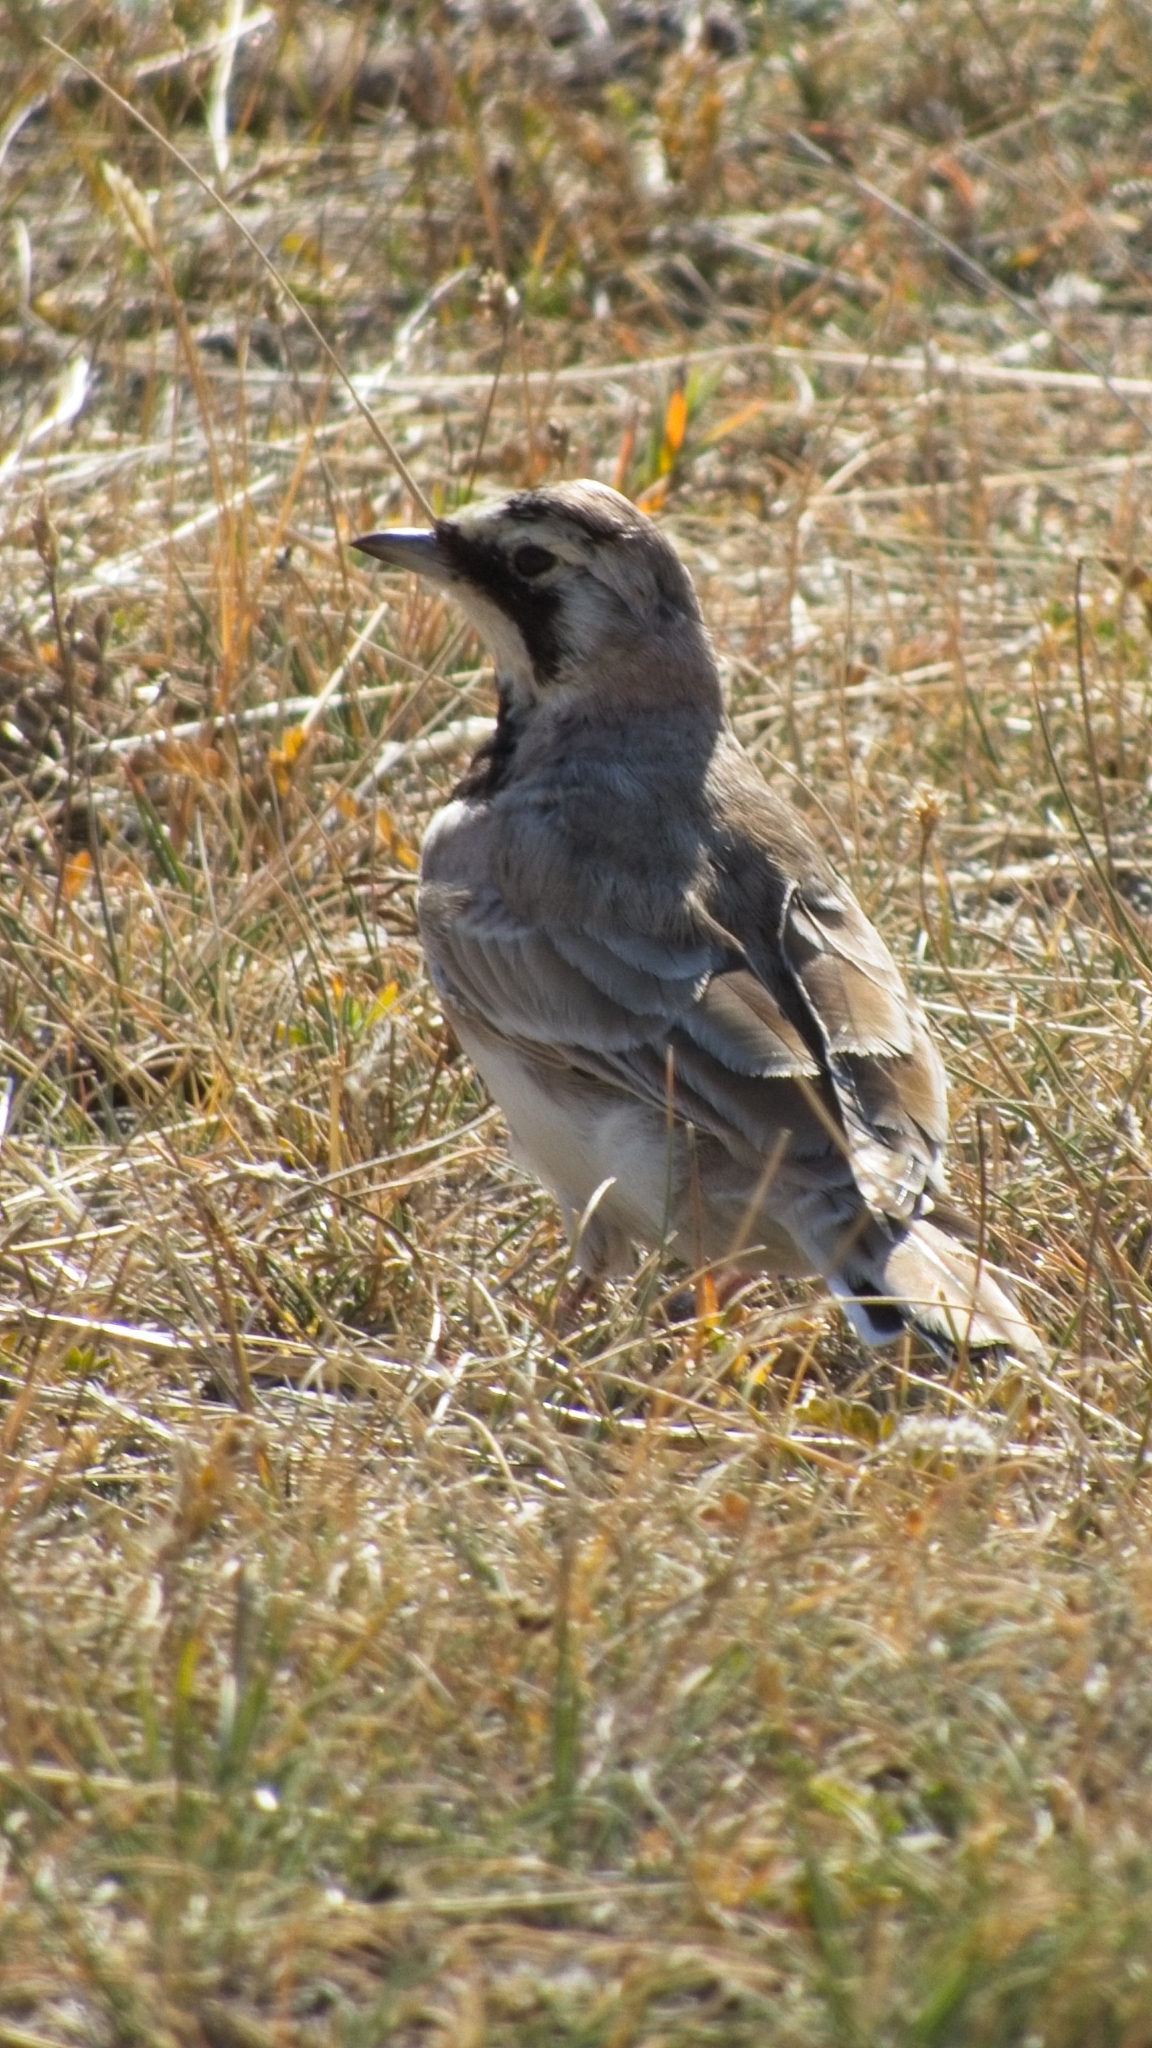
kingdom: Animalia
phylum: Chordata
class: Aves
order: Passeriformes
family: Alaudidae
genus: Eremophila
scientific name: Eremophila alpestris
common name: Horned lark
